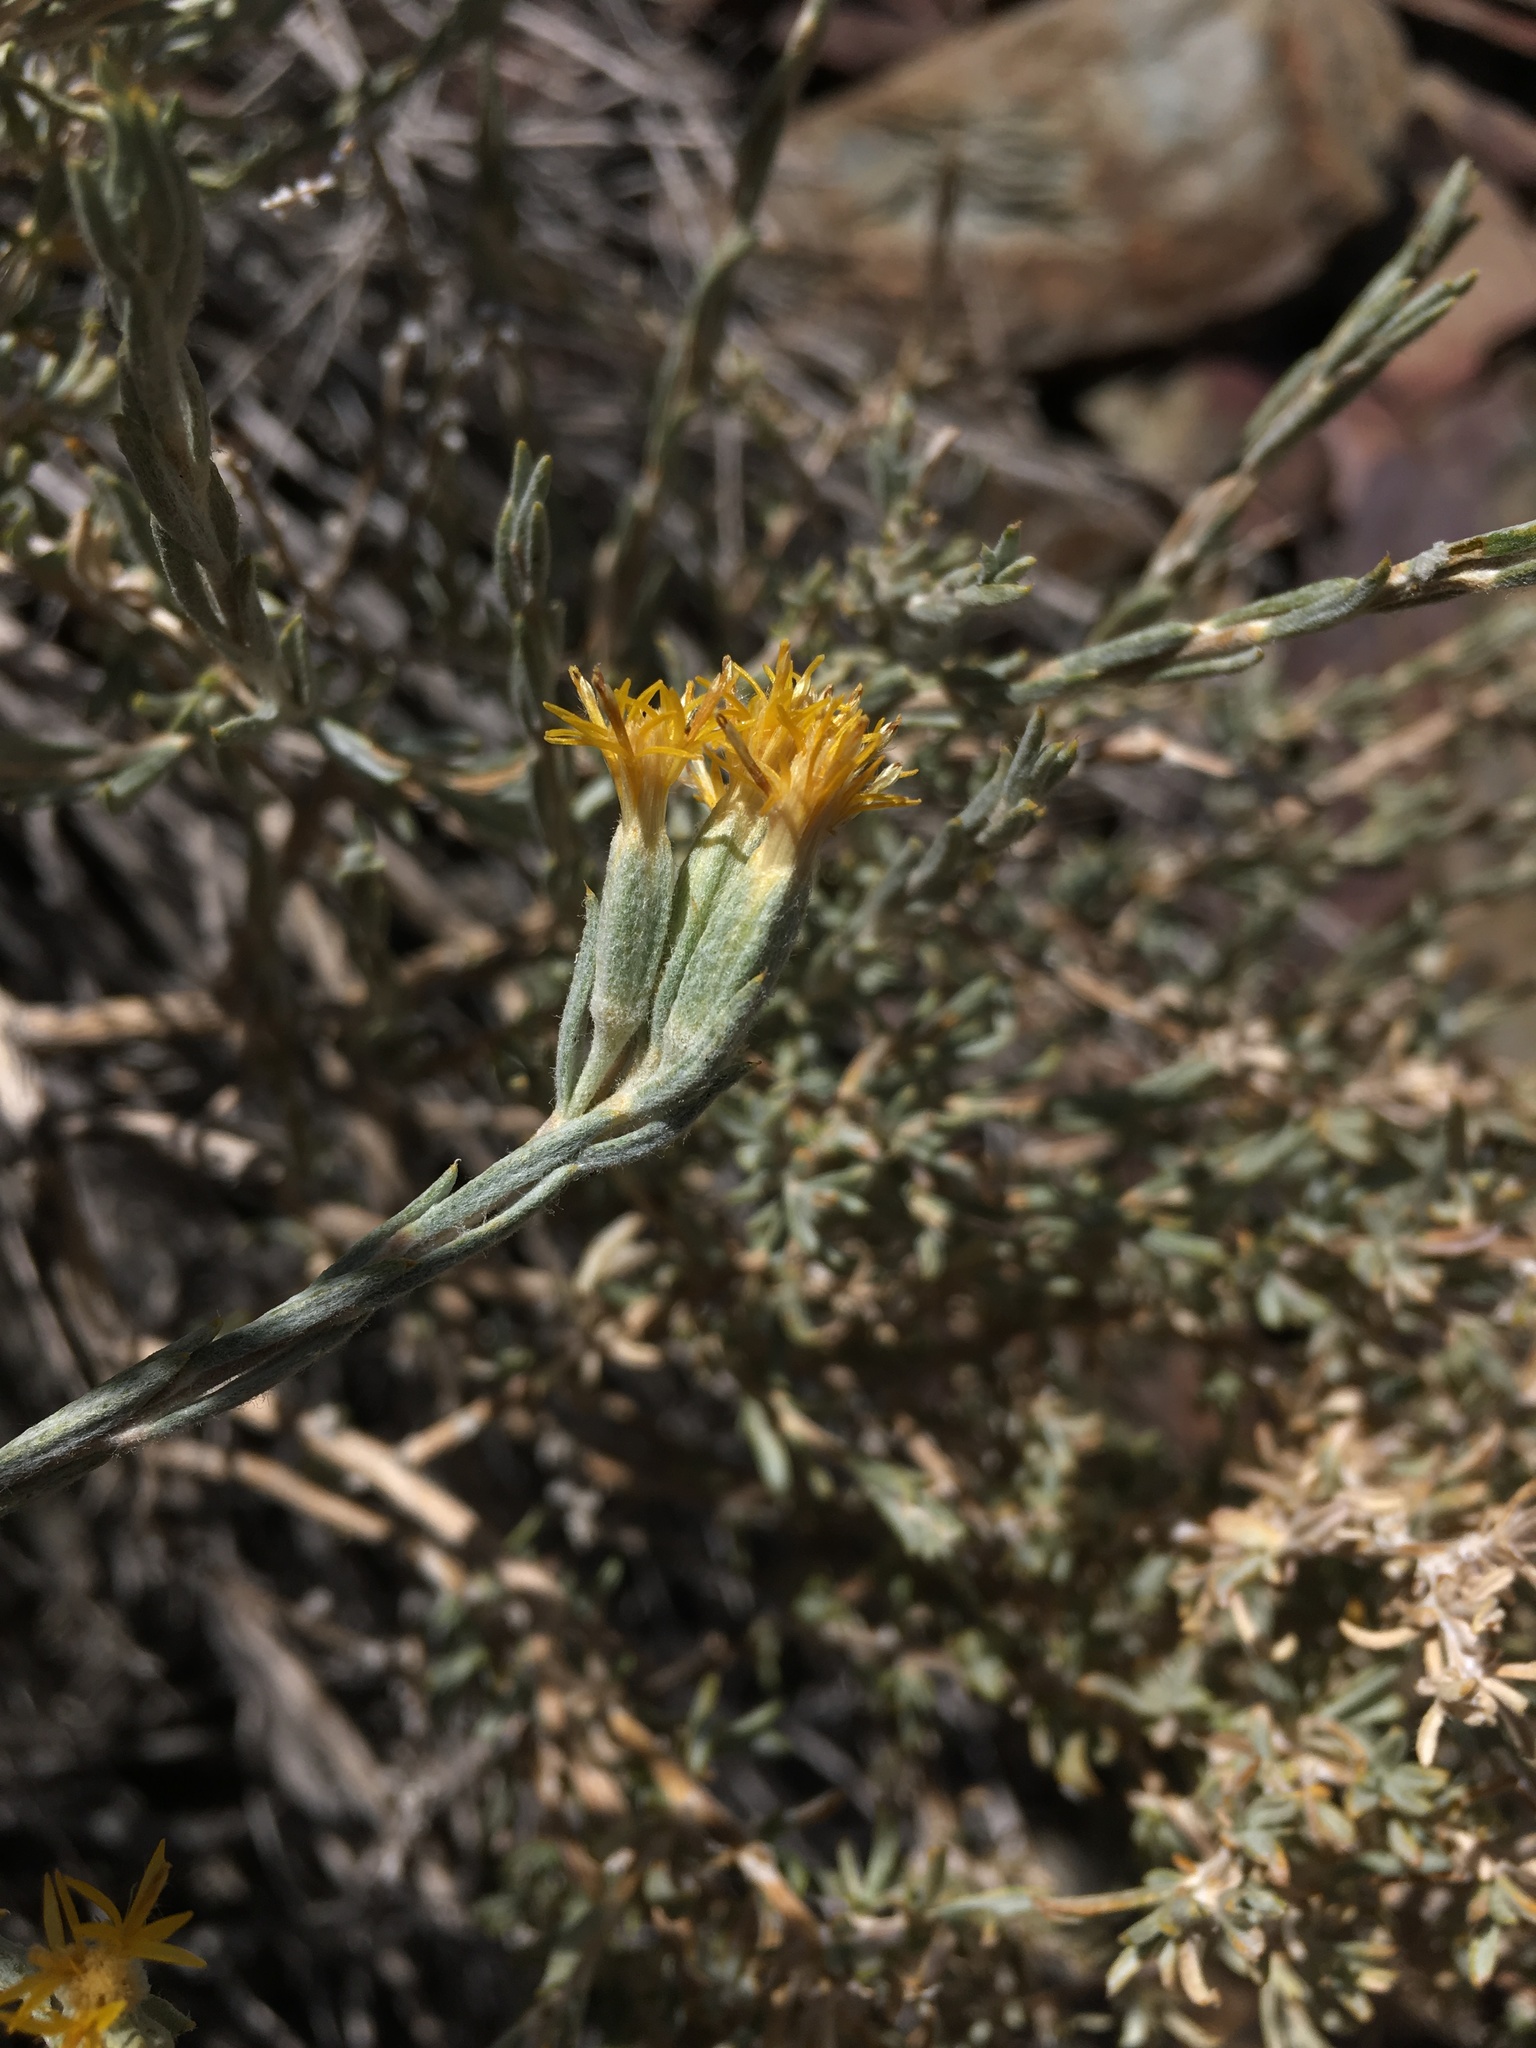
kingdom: Plantae
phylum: Tracheophyta
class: Magnoliopsida
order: Asterales
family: Asteraceae
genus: Tetradymia
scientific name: Tetradymia canescens
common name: Spineless horsebrush
